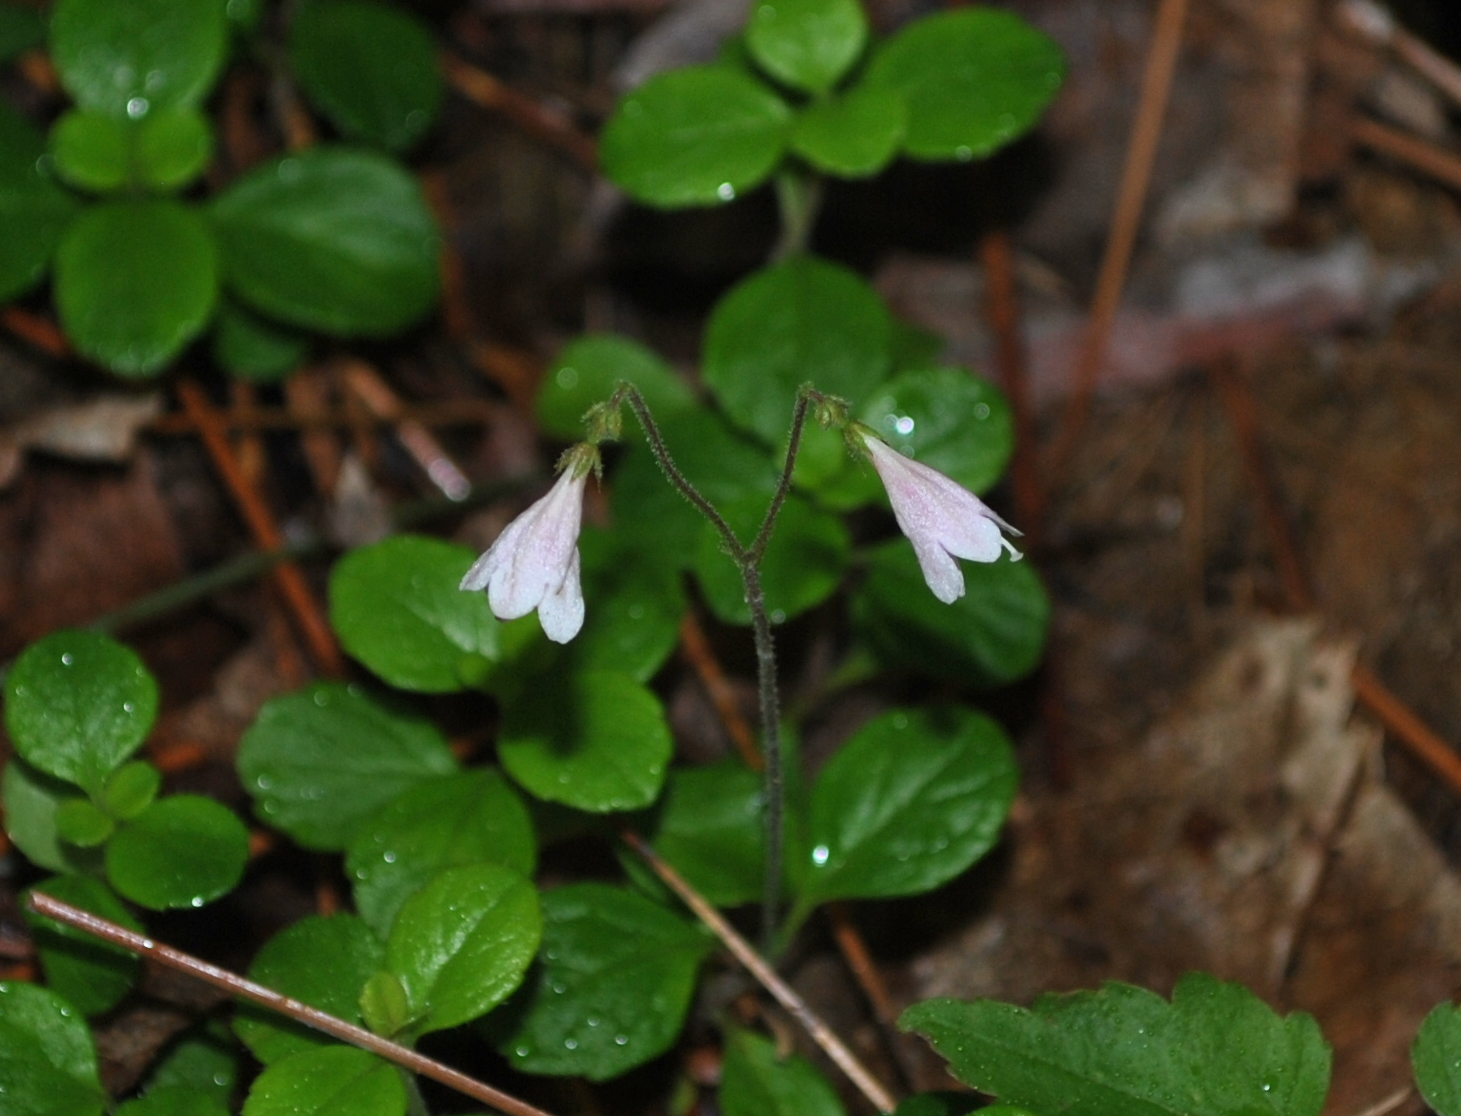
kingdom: Plantae
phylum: Tracheophyta
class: Magnoliopsida
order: Dipsacales
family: Caprifoliaceae
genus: Linnaea
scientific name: Linnaea borealis
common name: Twinflower
